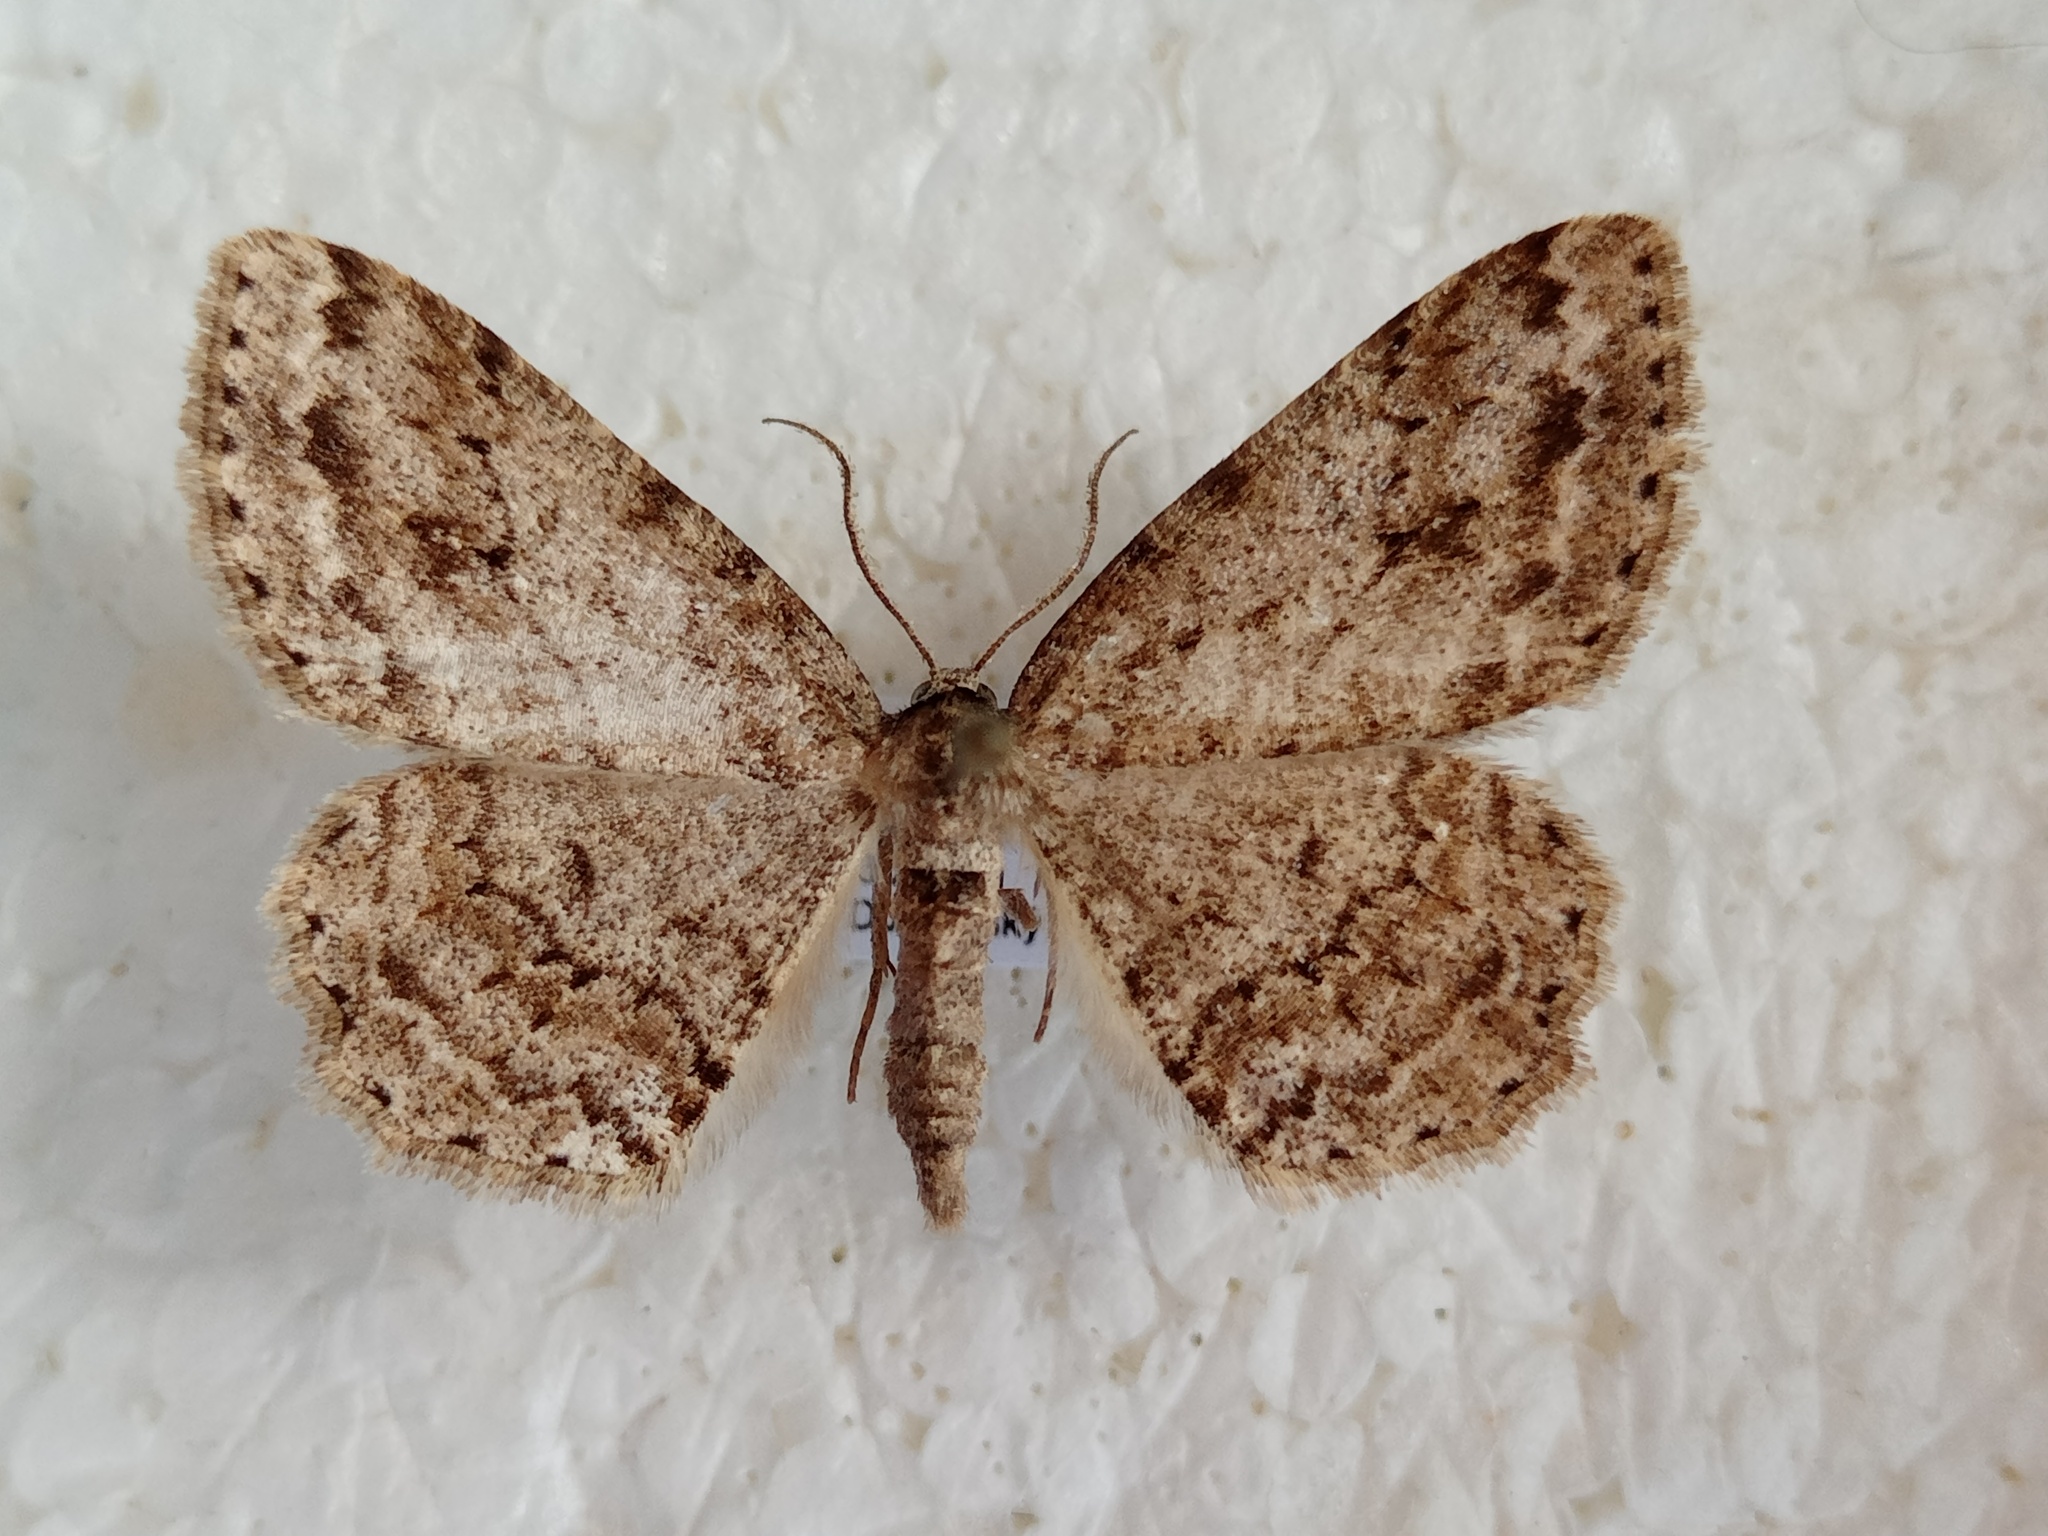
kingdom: Animalia
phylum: Arthropoda
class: Insecta
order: Lepidoptera
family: Geometridae
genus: Ectropis
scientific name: Ectropis crepuscularia
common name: Engrailed
